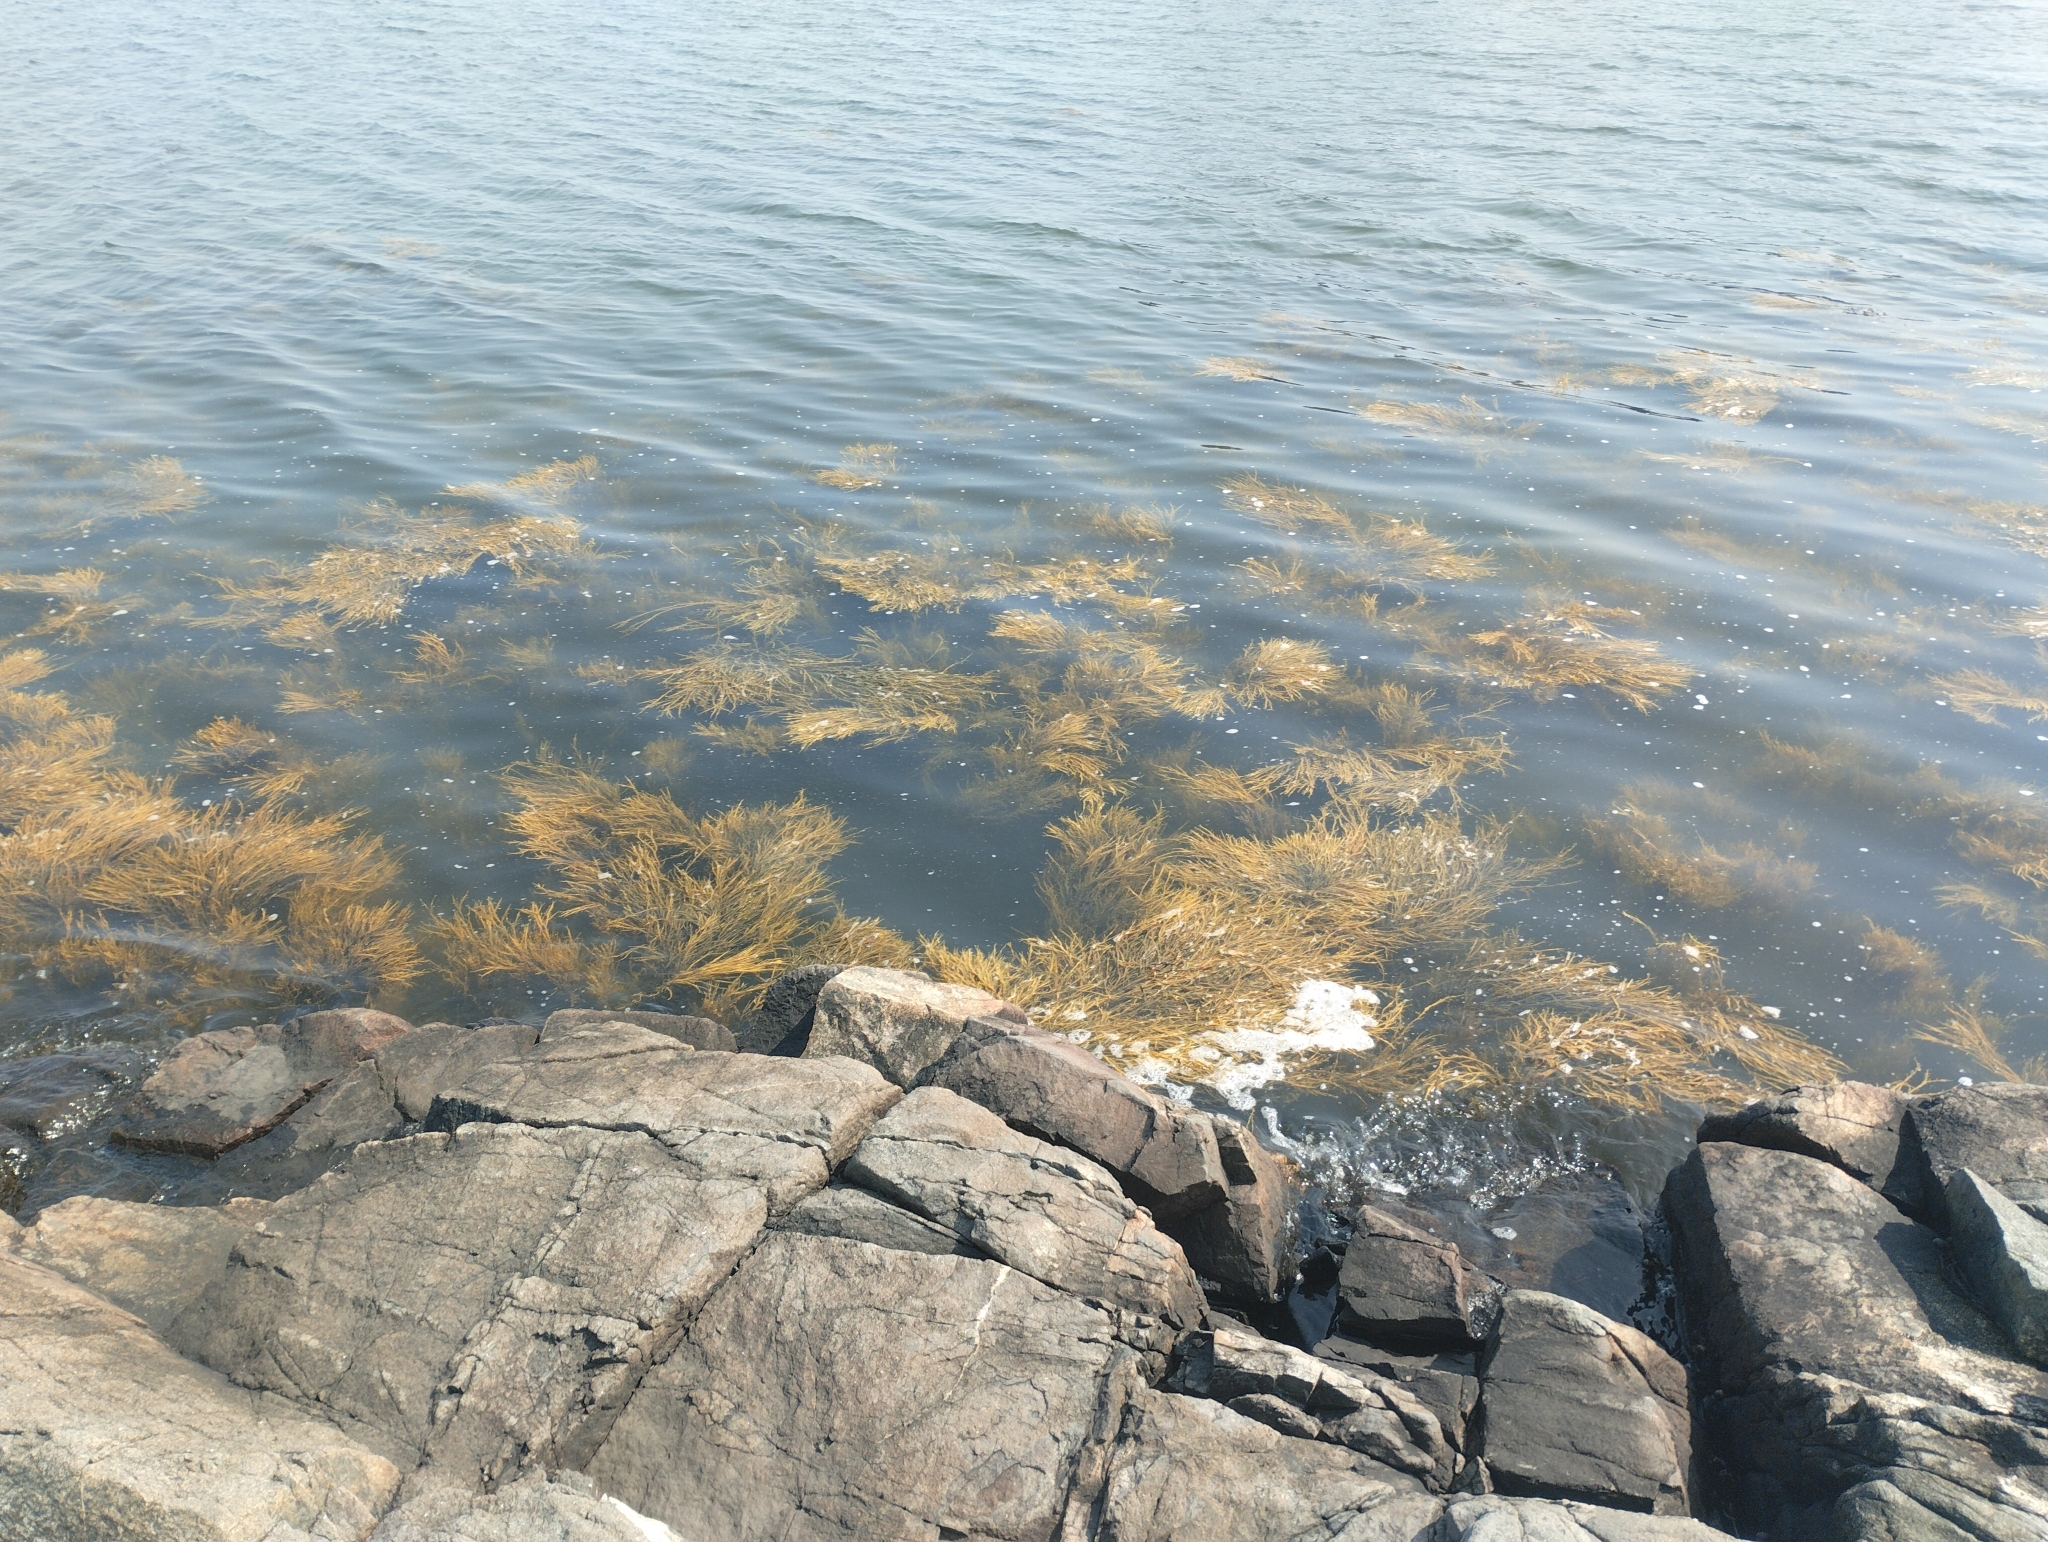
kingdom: Chromista
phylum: Ochrophyta
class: Phaeophyceae
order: Fucales
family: Fucaceae
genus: Ascophyllum
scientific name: Ascophyllum nodosum
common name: Knotted wrack
